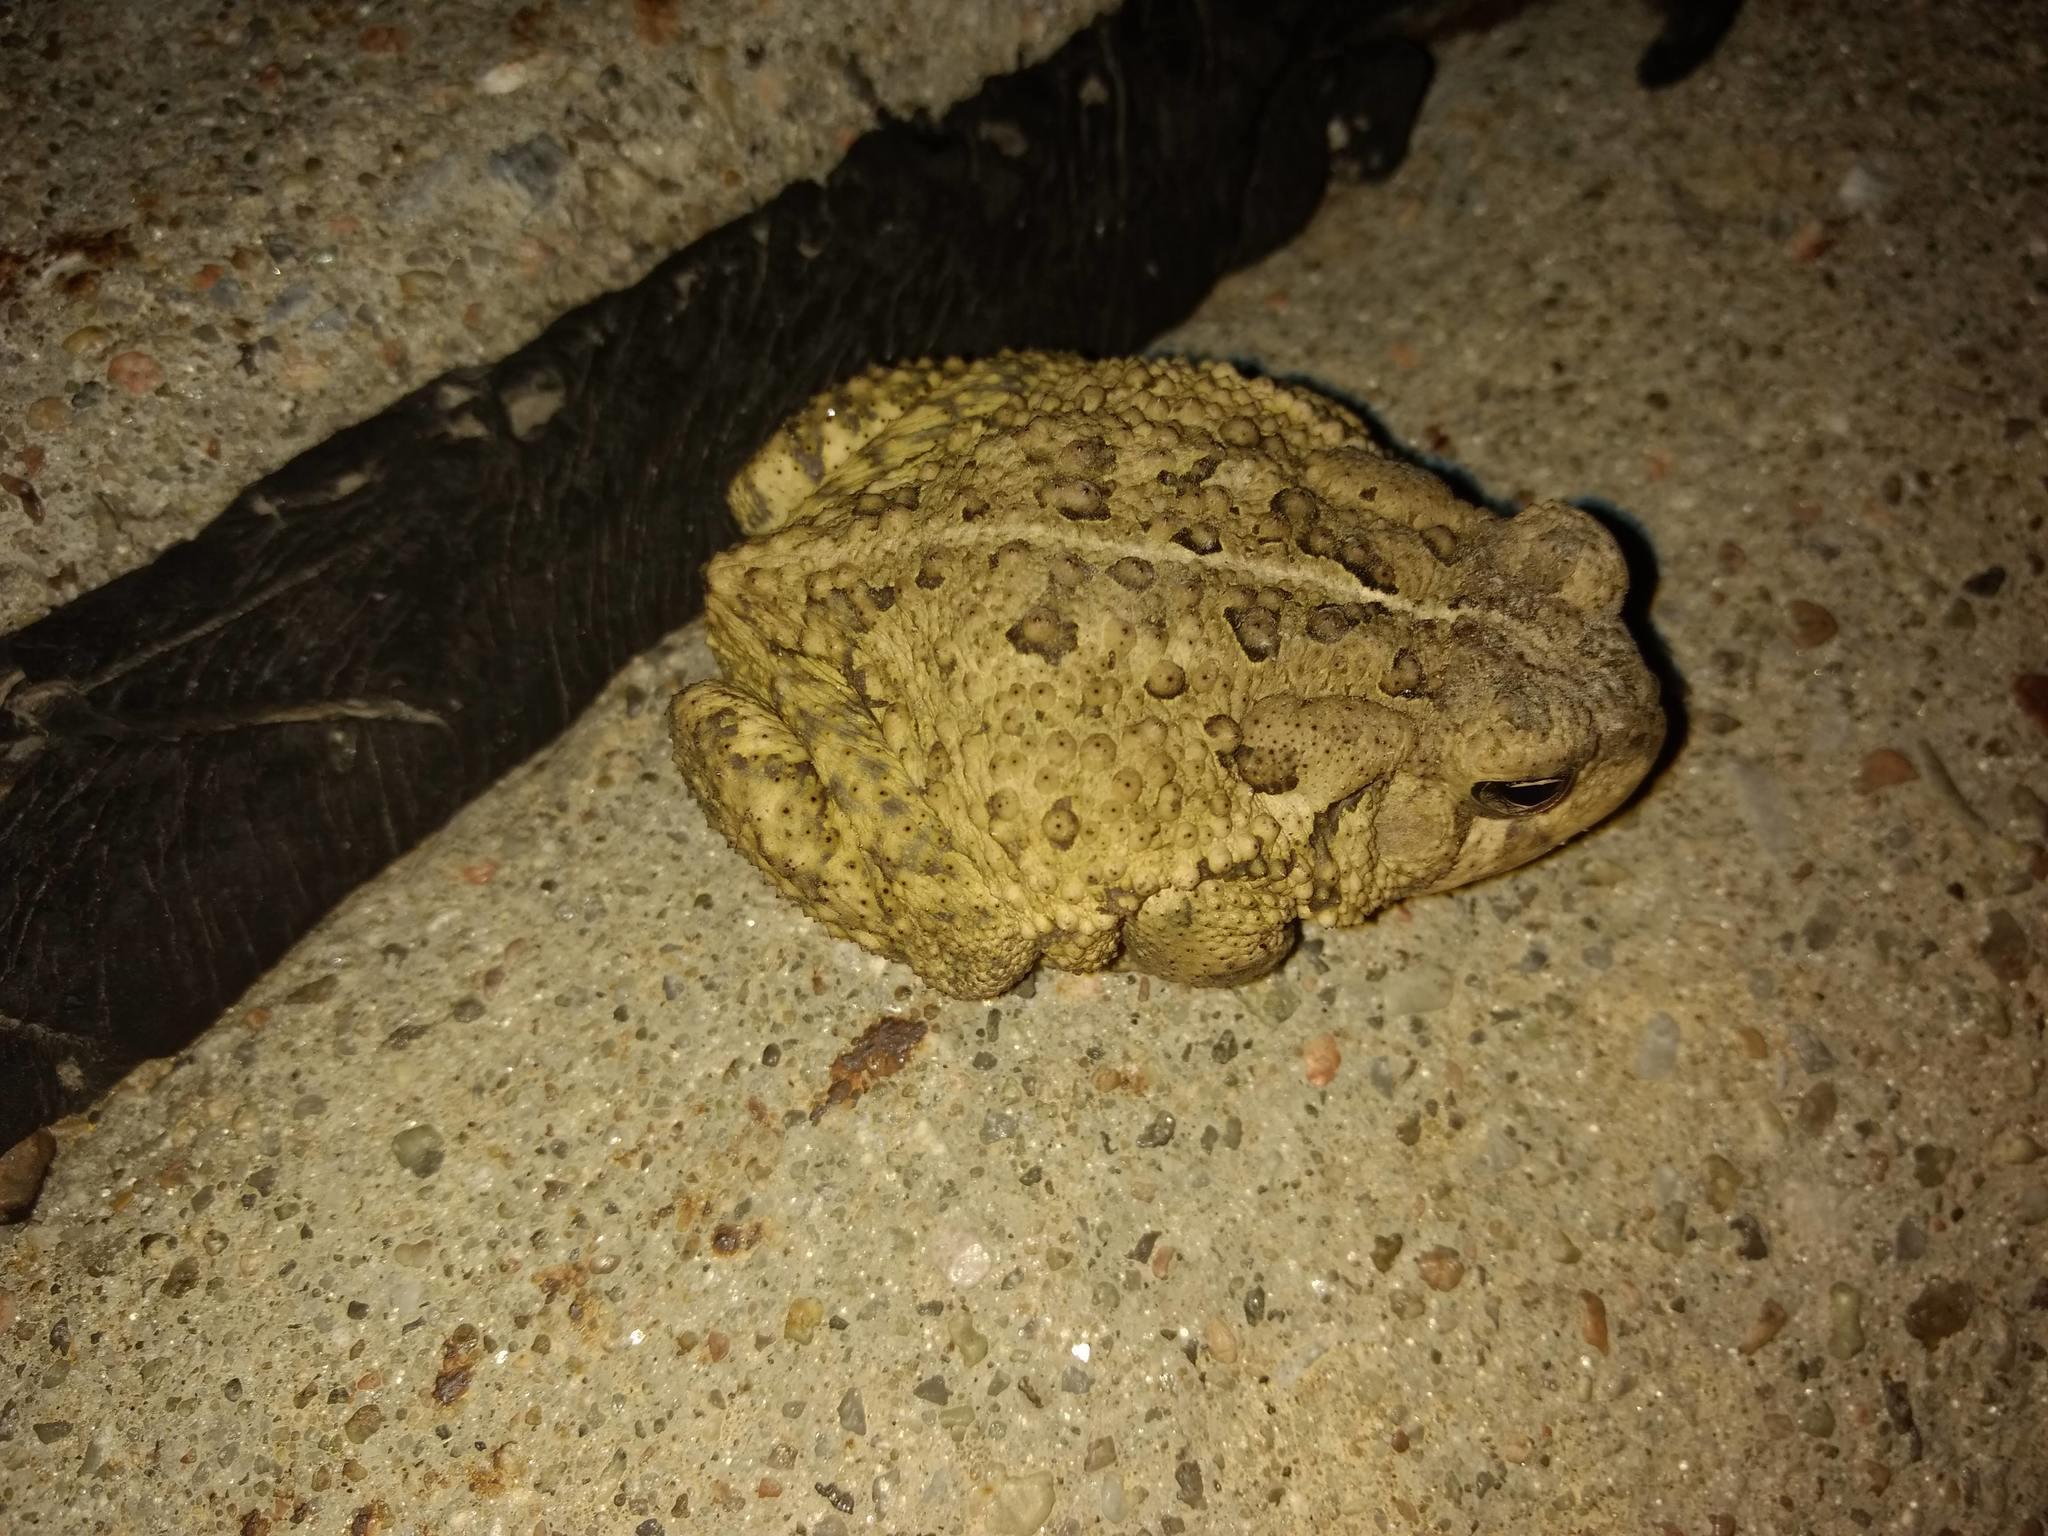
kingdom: Animalia
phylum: Chordata
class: Amphibia
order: Anura
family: Bufonidae
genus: Anaxyrus
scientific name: Anaxyrus woodhousii
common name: Woodhouse's toad
